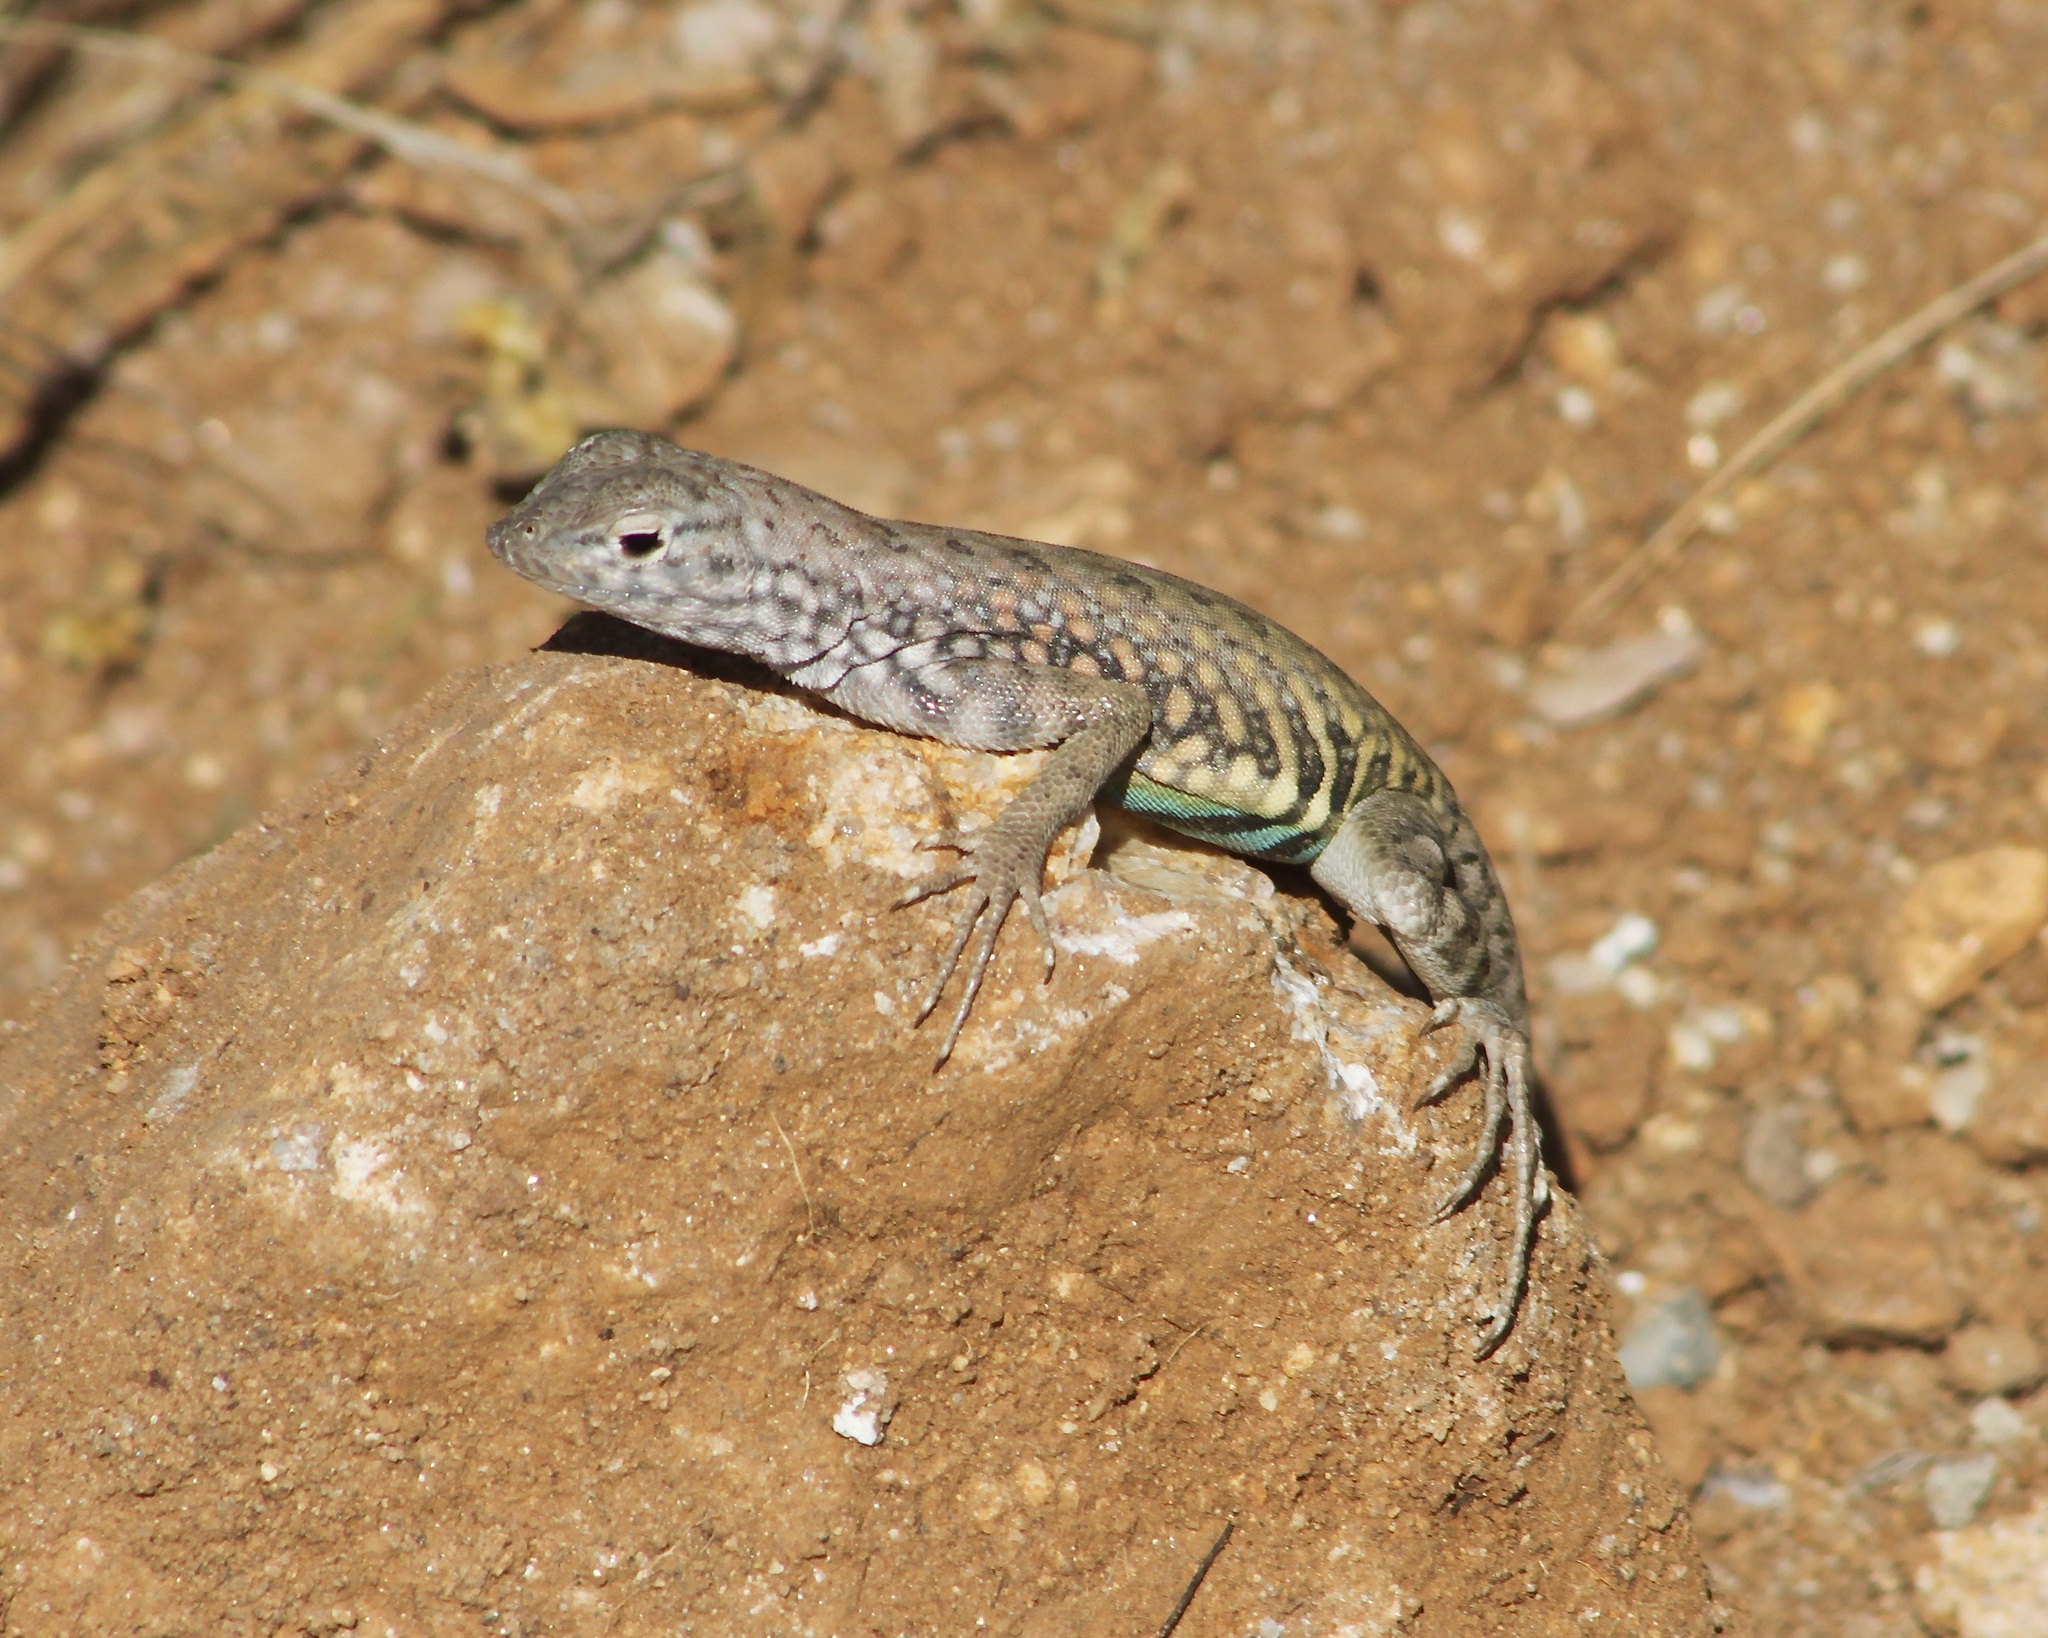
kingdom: Animalia
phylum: Chordata
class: Squamata
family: Phrynosomatidae
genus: Cophosaurus
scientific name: Cophosaurus texanus
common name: Greater earless lizard
